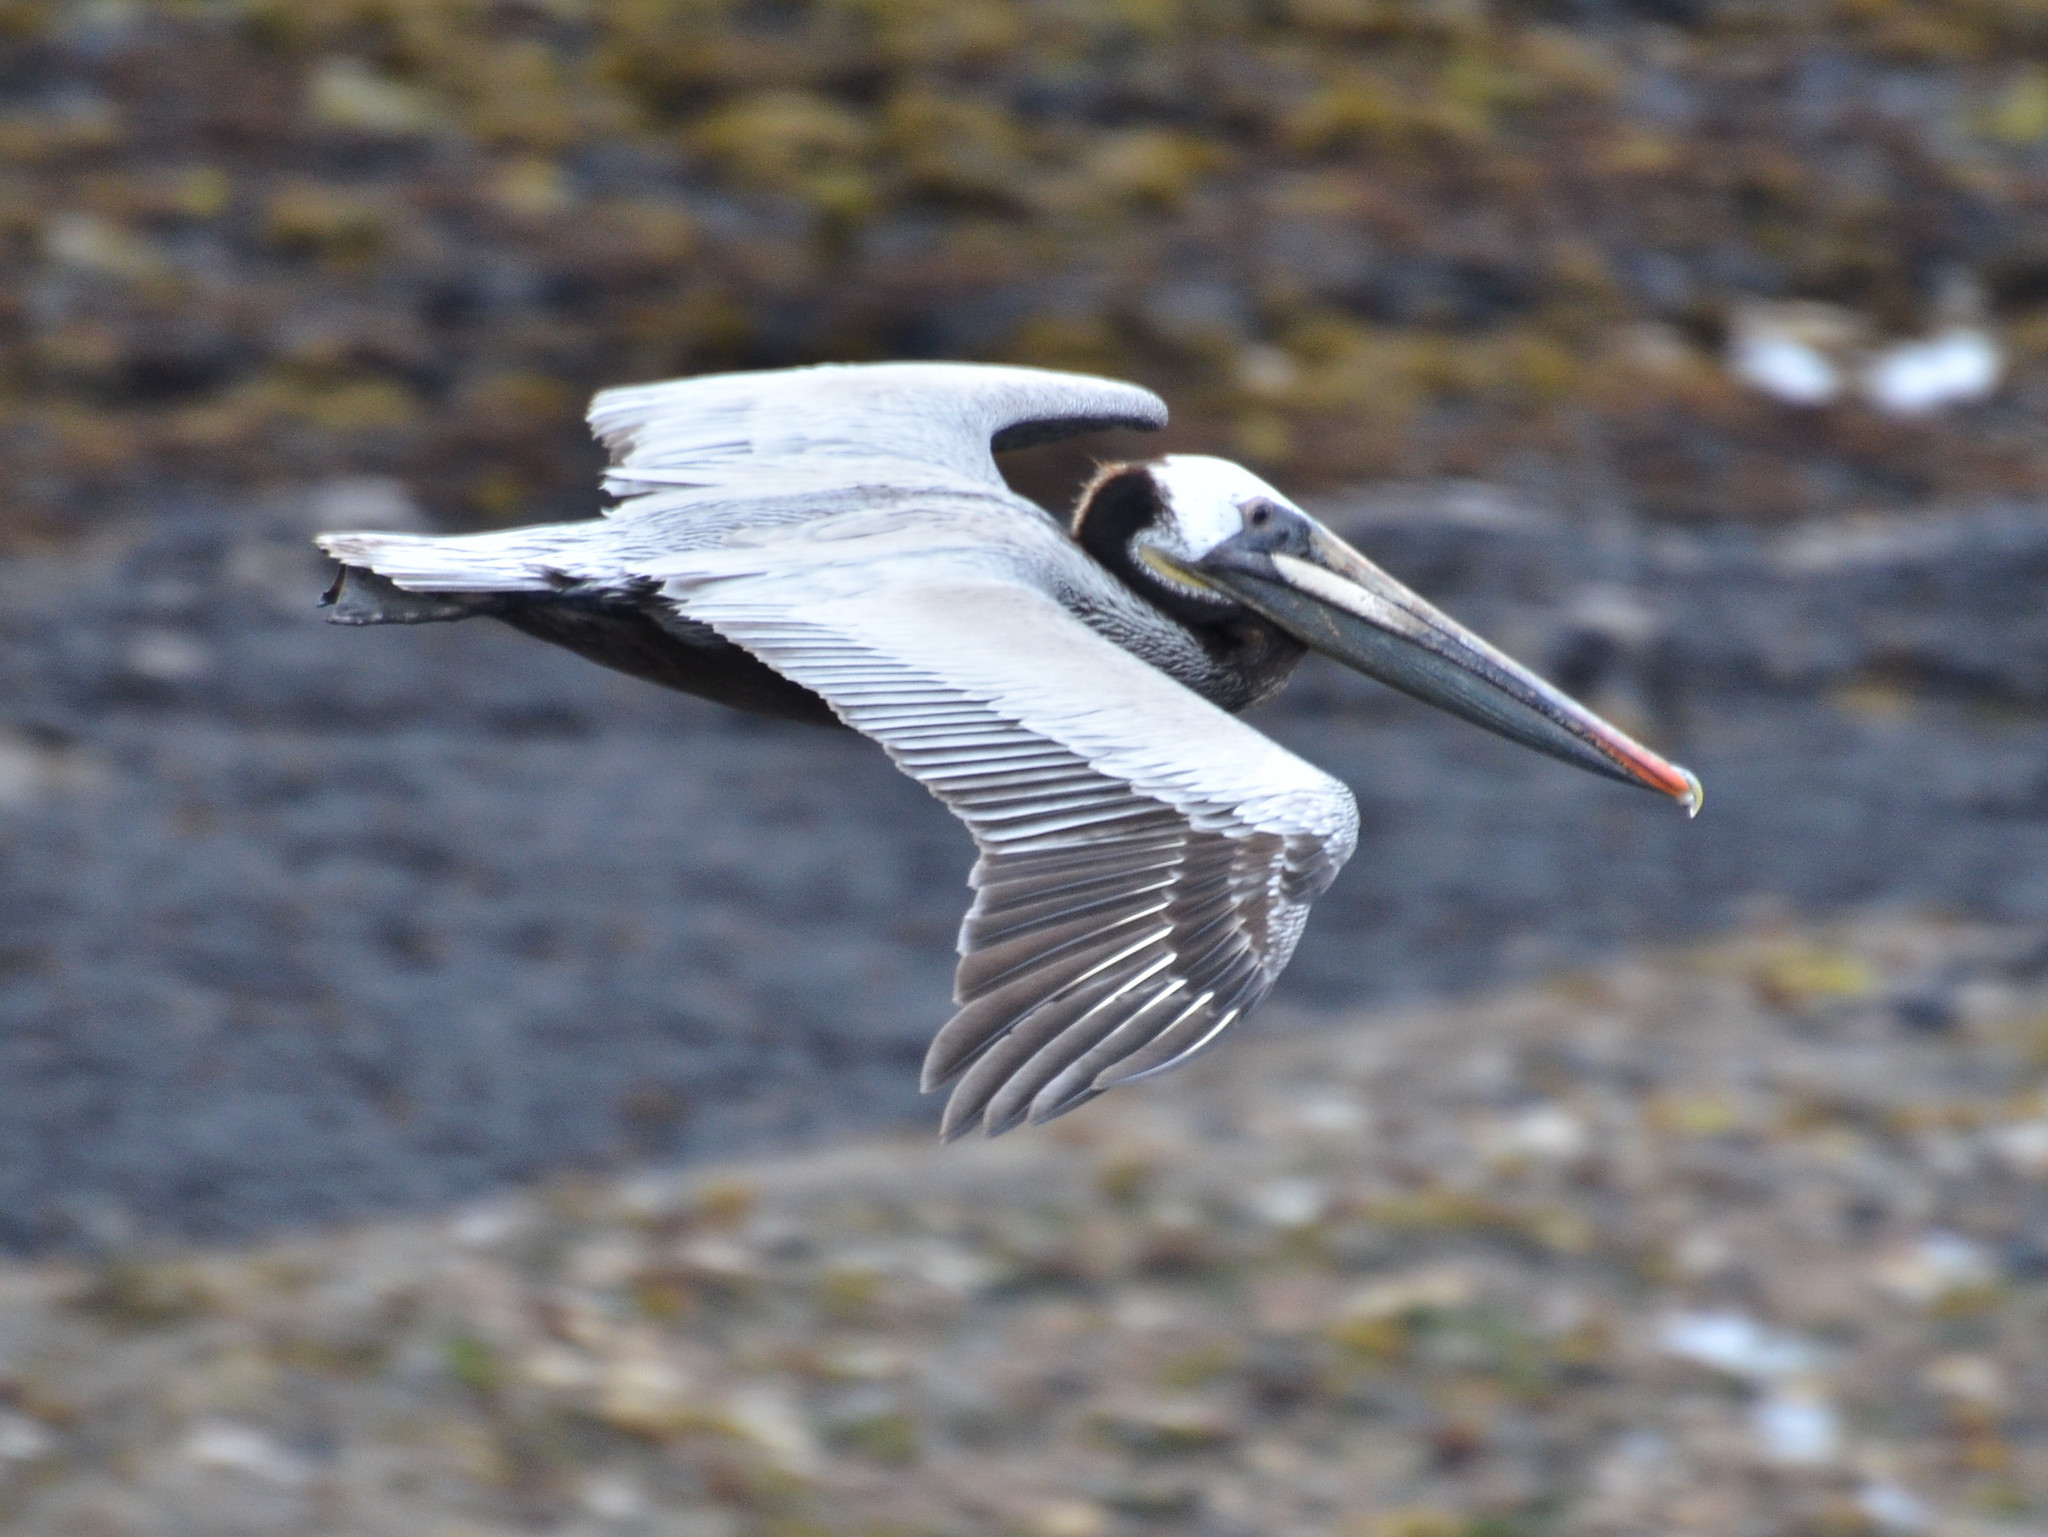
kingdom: Animalia
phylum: Chordata
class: Aves
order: Pelecaniformes
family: Pelecanidae
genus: Pelecanus
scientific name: Pelecanus occidentalis
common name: Brown pelican
